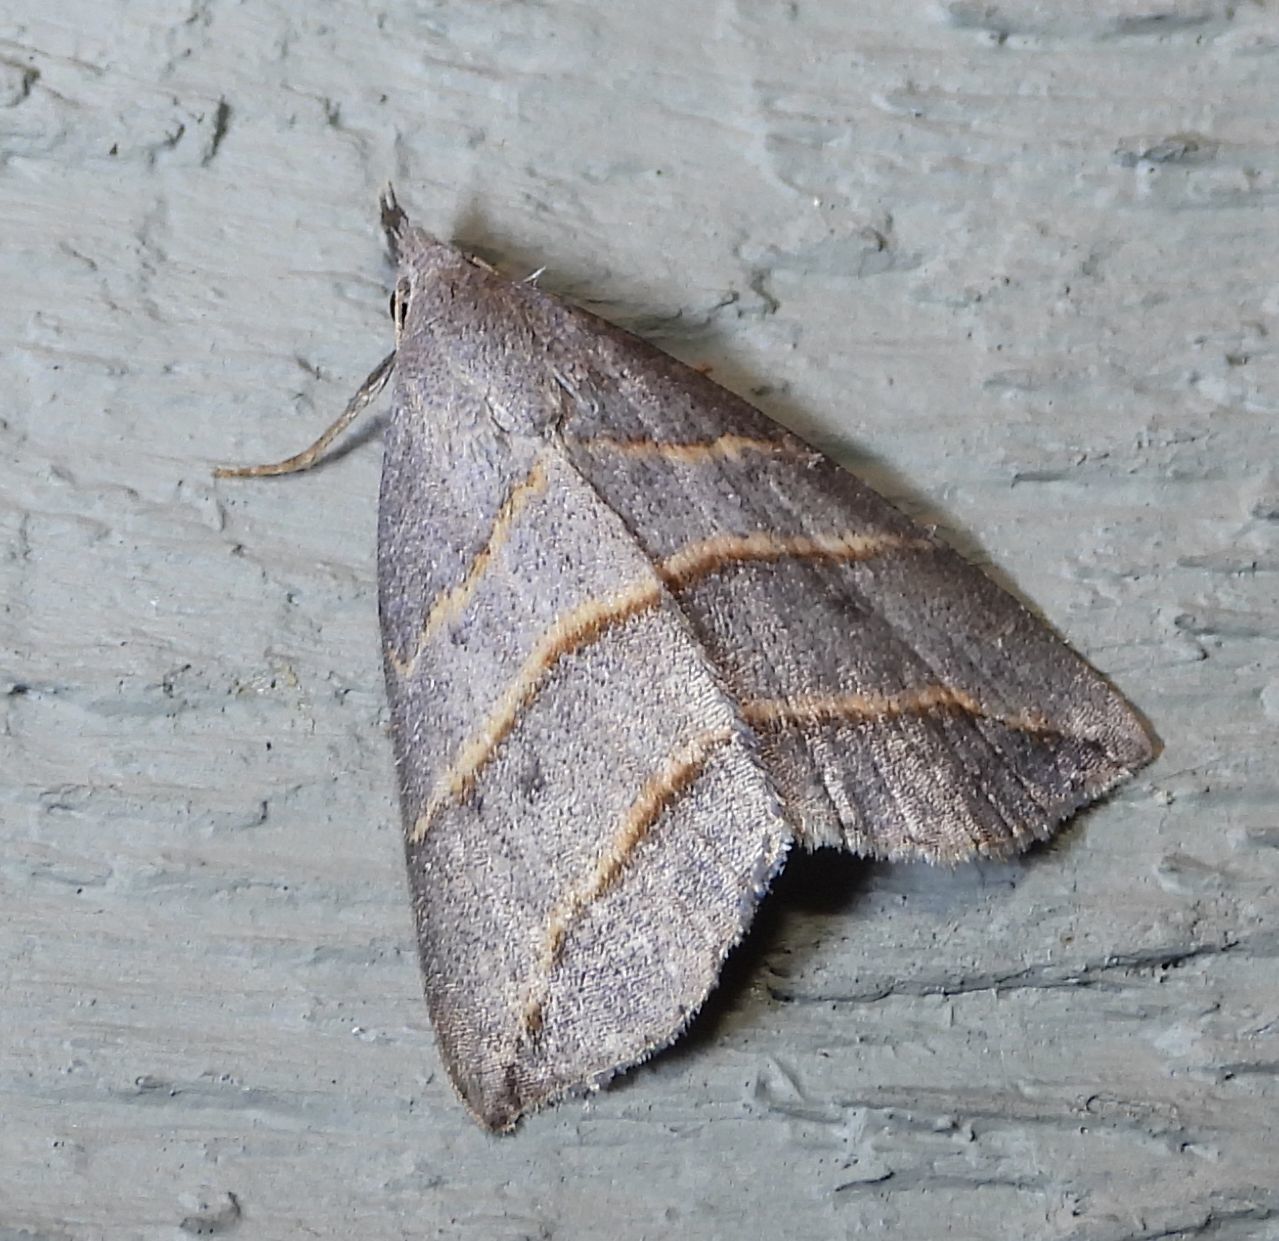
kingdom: Animalia
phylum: Arthropoda
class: Insecta
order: Lepidoptera
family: Erebidae
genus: Colobochyla
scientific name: Colobochyla interpuncta
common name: Yellow-lined owlet
